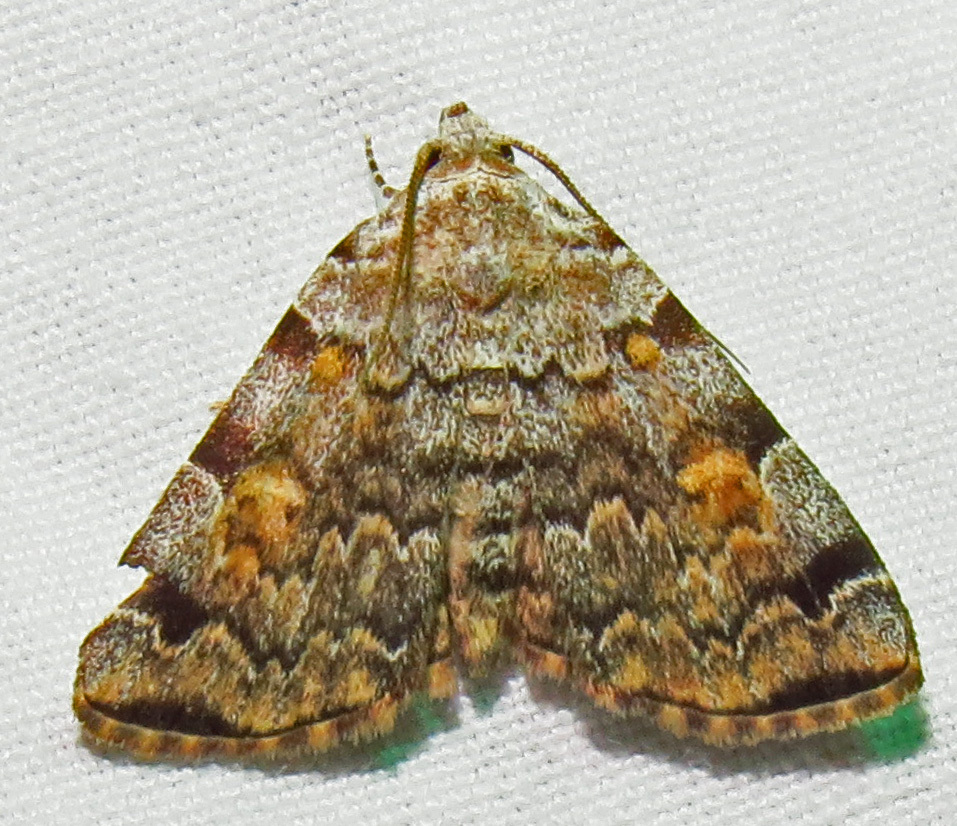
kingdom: Animalia
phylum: Arthropoda
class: Insecta
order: Lepidoptera
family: Erebidae
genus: Idia
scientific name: Idia americalis
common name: American idia moth
